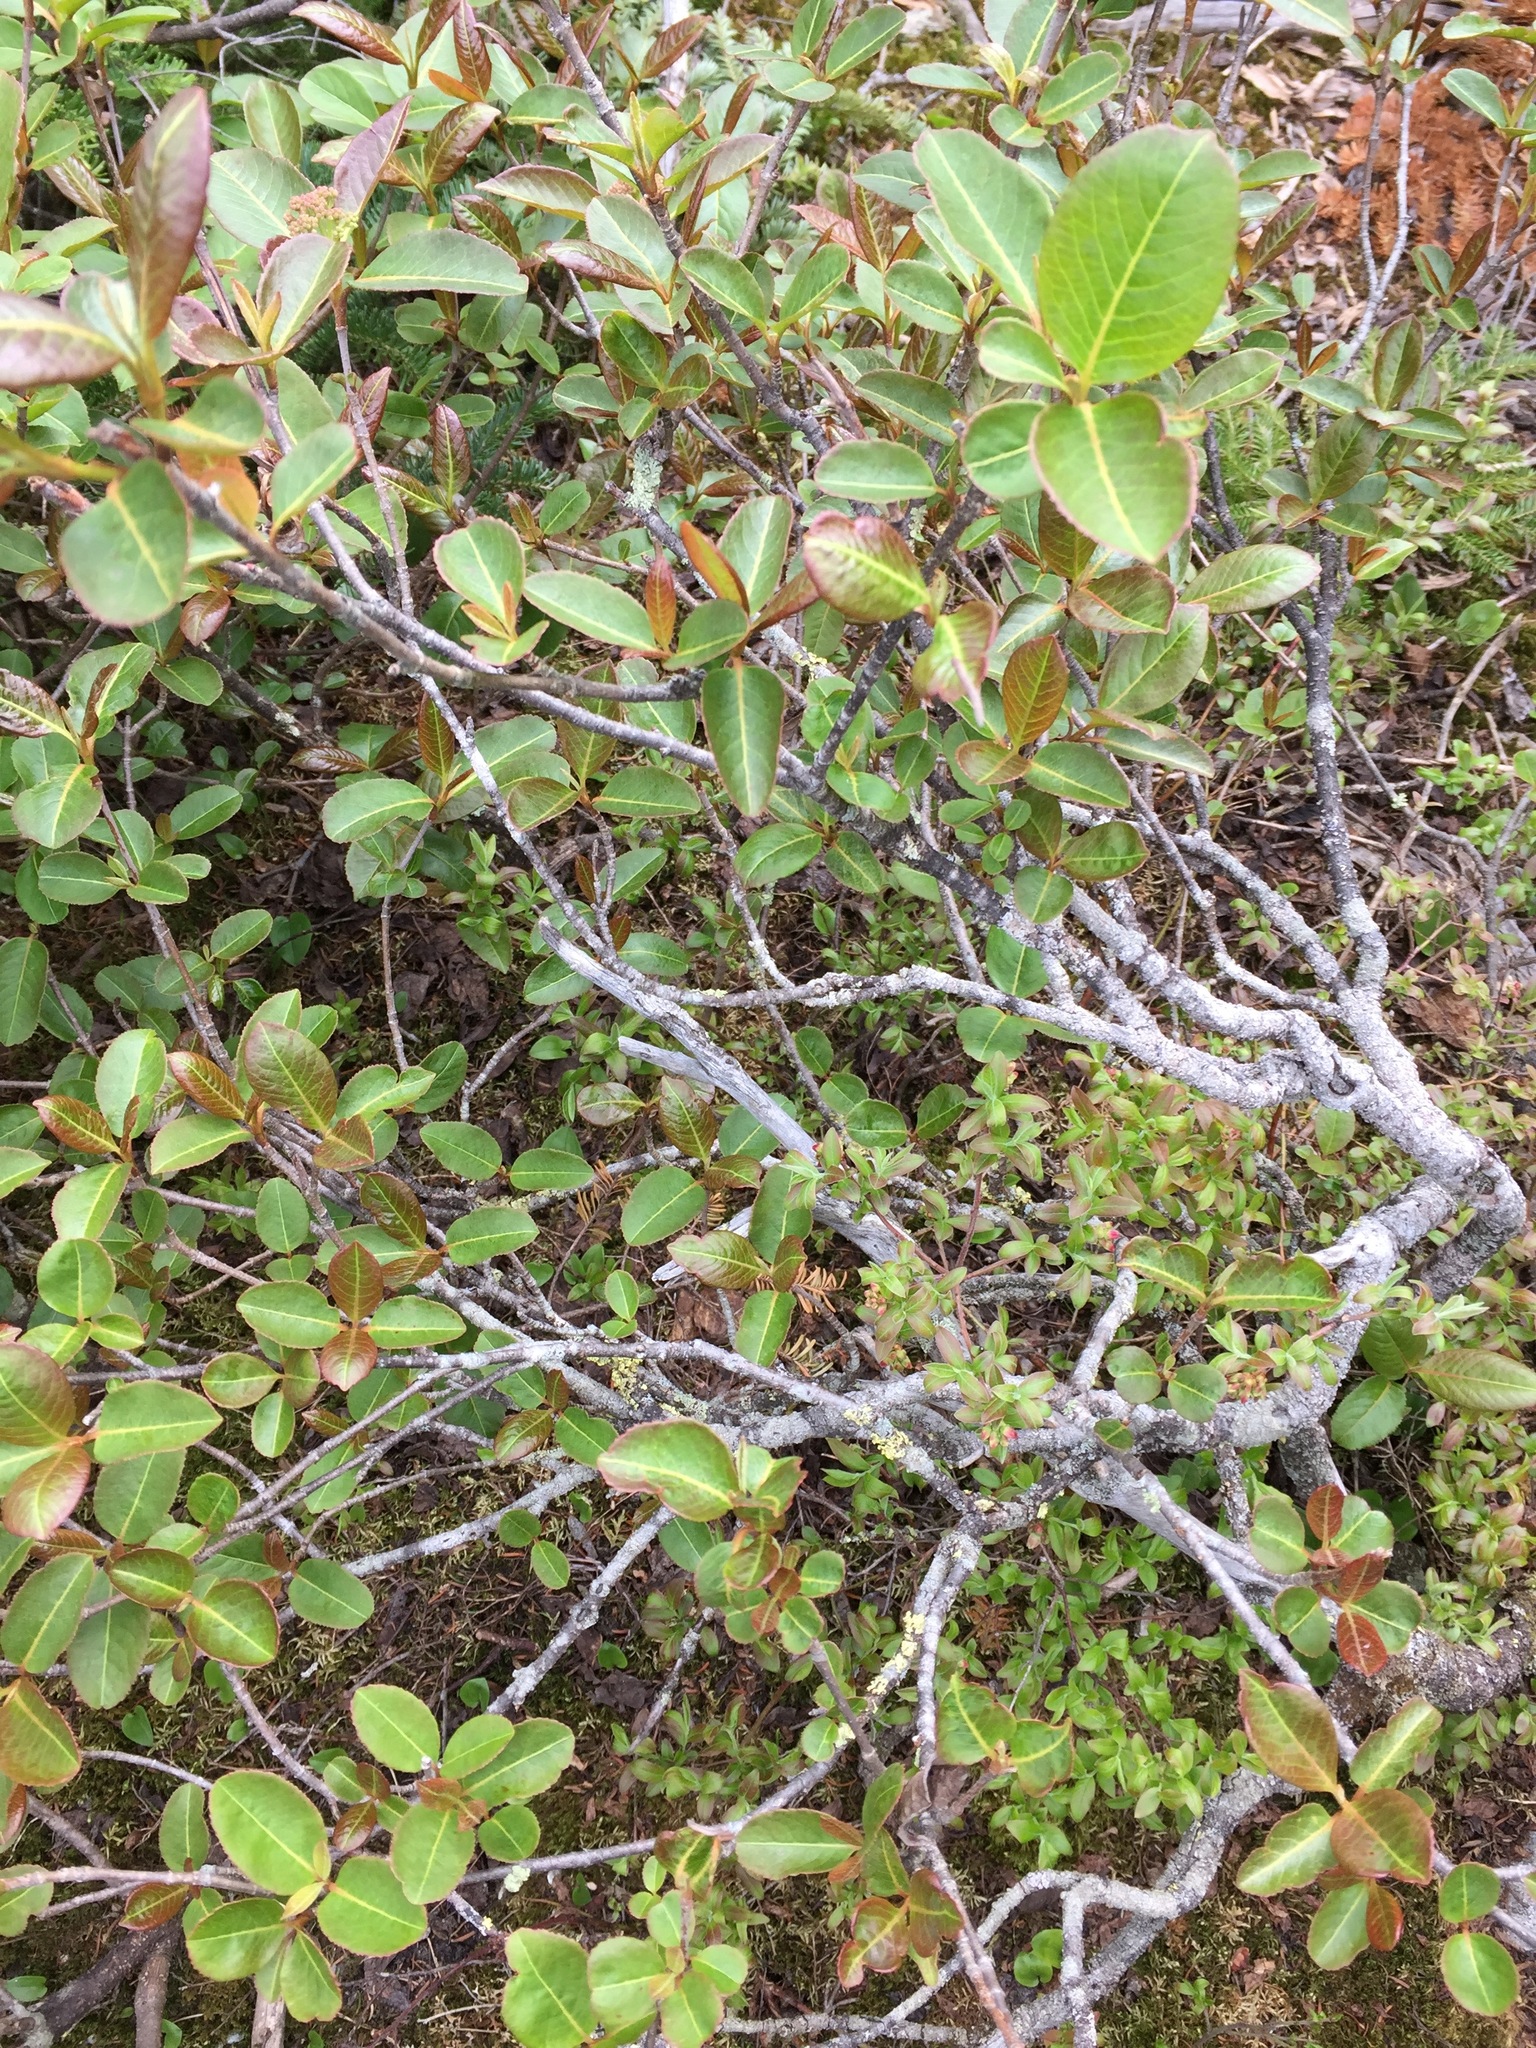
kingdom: Plantae
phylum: Tracheophyta
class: Magnoliopsida
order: Dipsacales
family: Viburnaceae
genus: Viburnum
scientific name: Viburnum cassinoides
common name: Swamp haw
